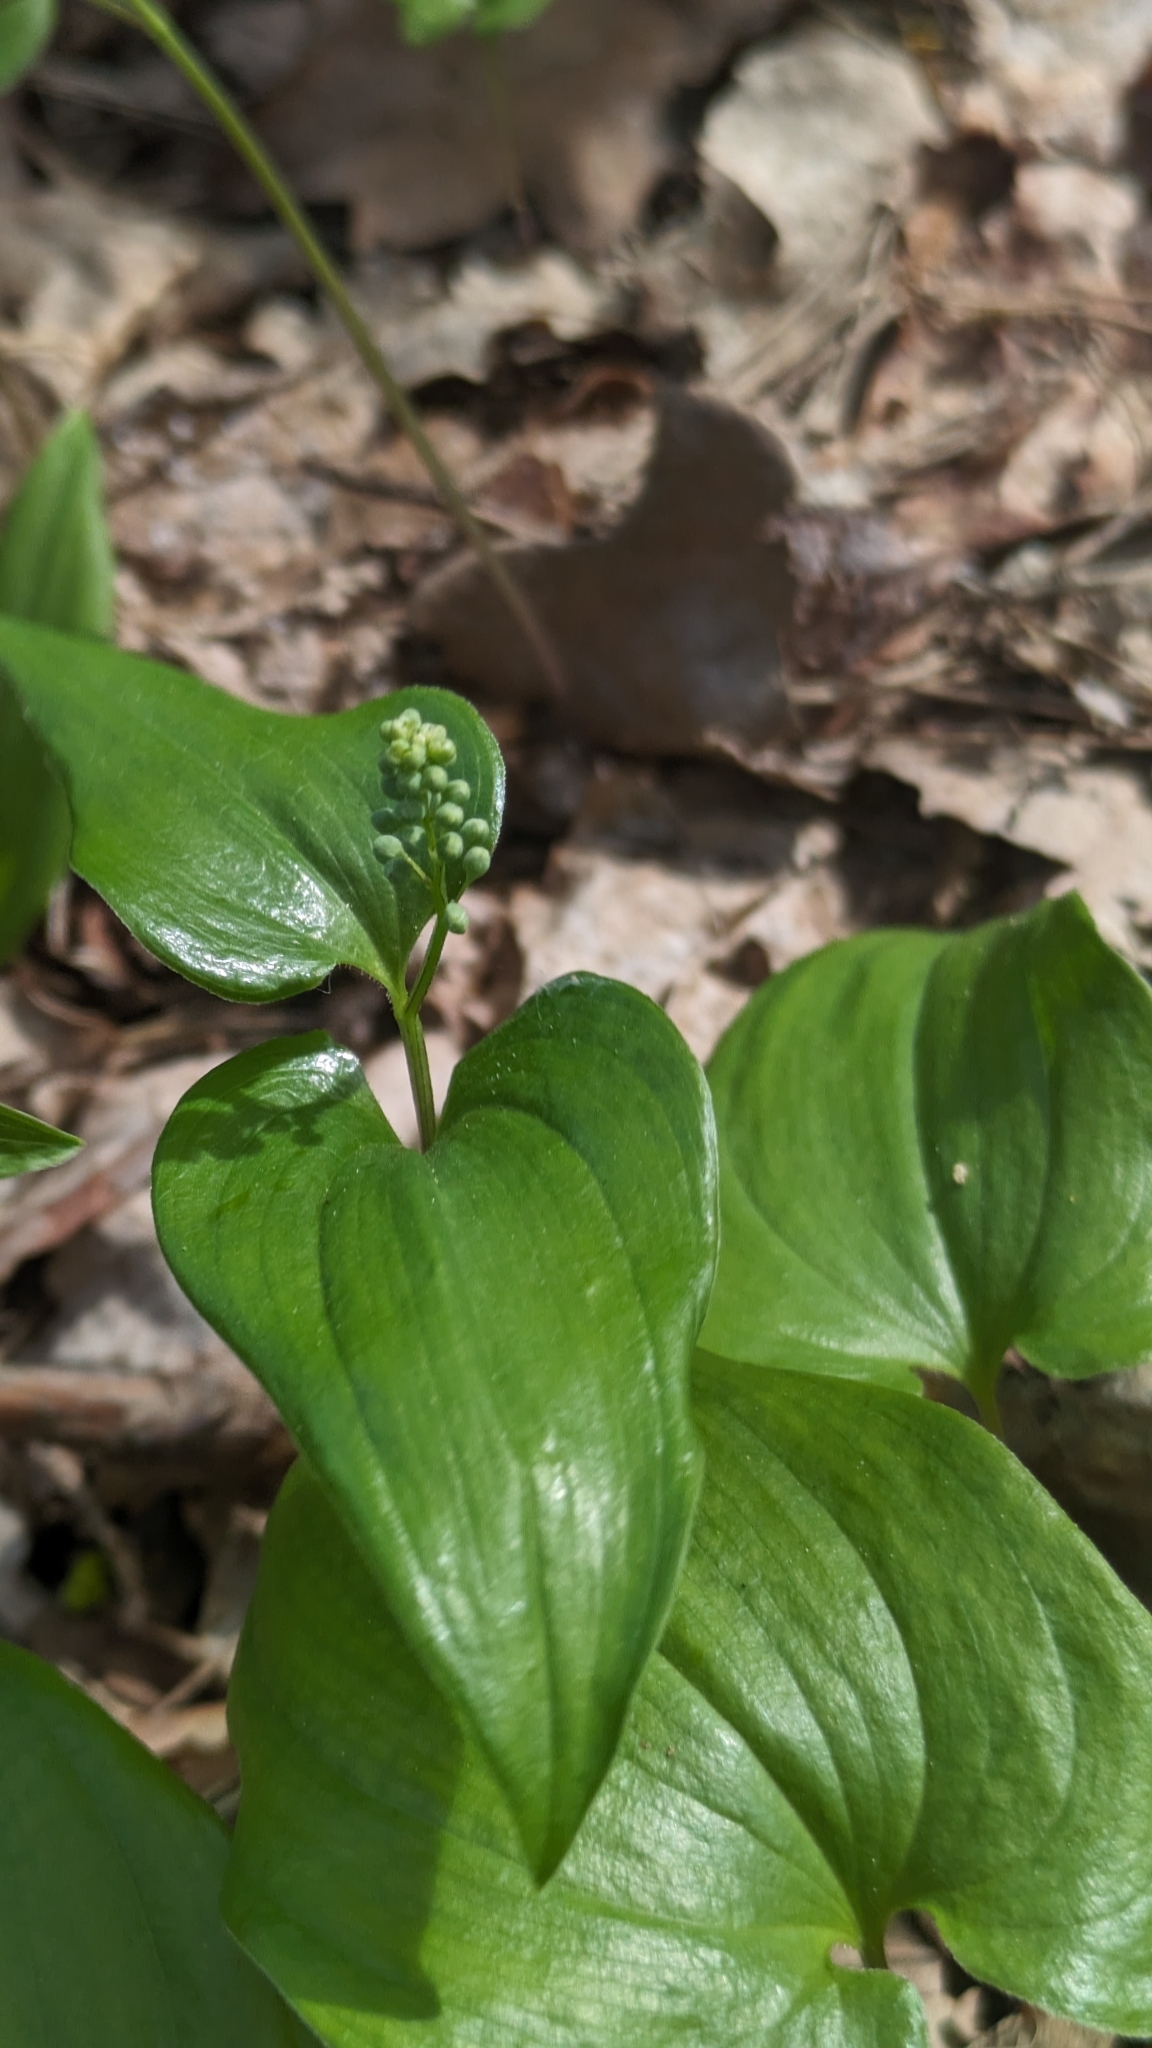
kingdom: Plantae
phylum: Tracheophyta
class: Liliopsida
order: Asparagales
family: Asparagaceae
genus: Maianthemum
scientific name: Maianthemum bifolium
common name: May lily
